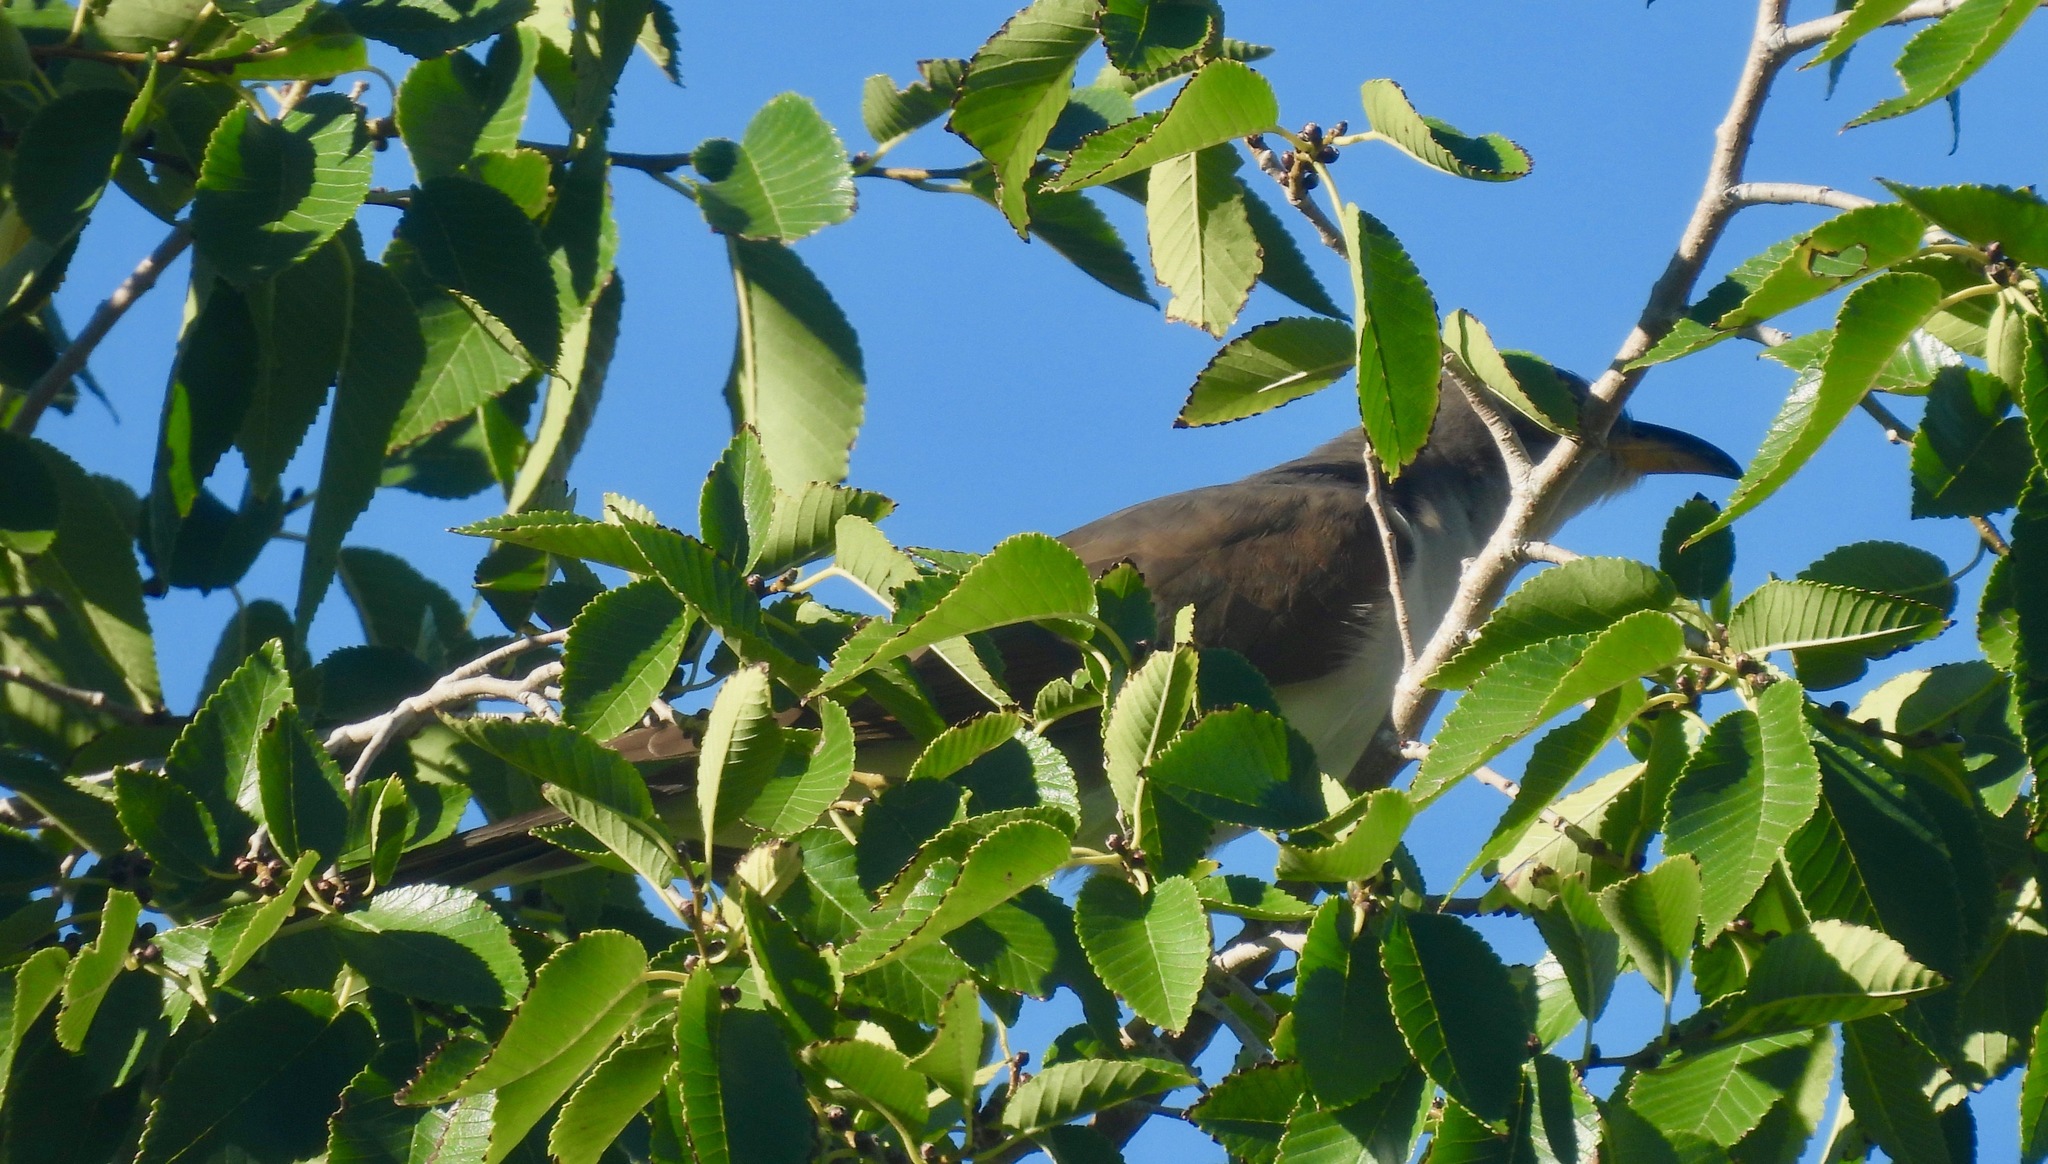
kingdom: Animalia
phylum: Chordata
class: Aves
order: Cuculiformes
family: Cuculidae
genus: Coccyzus
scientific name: Coccyzus americanus
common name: Yellow-billed cuckoo
